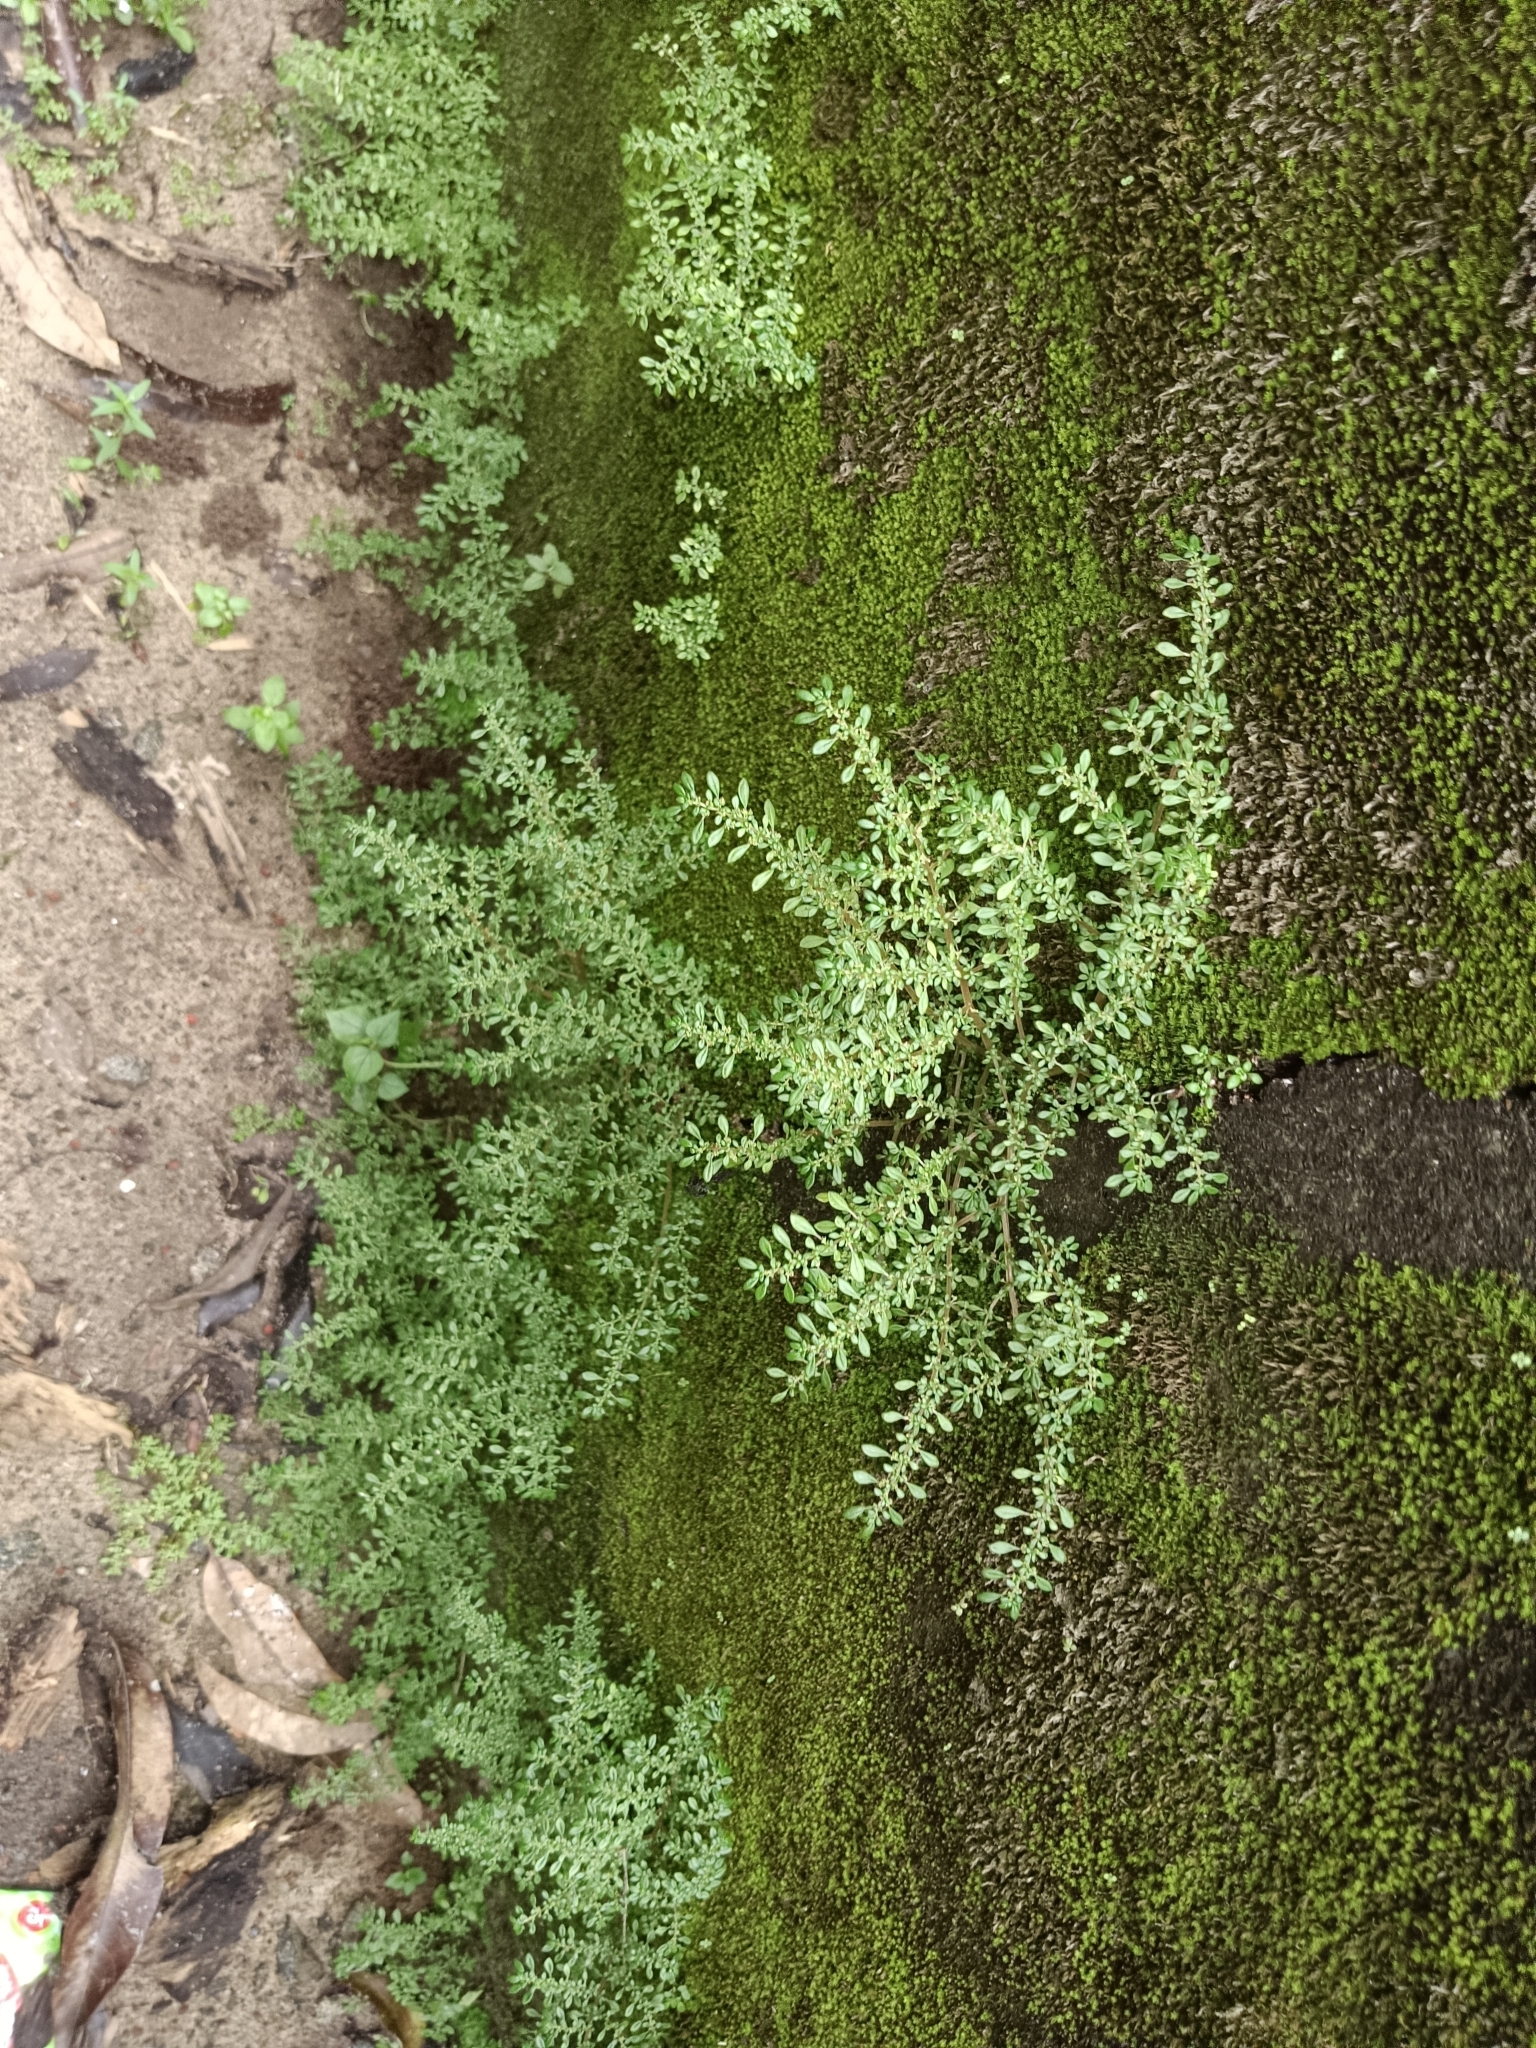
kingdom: Plantae
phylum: Tracheophyta
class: Magnoliopsida
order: Rosales
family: Urticaceae
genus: Pilea
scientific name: Pilea microphylla
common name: Artillery-plant
